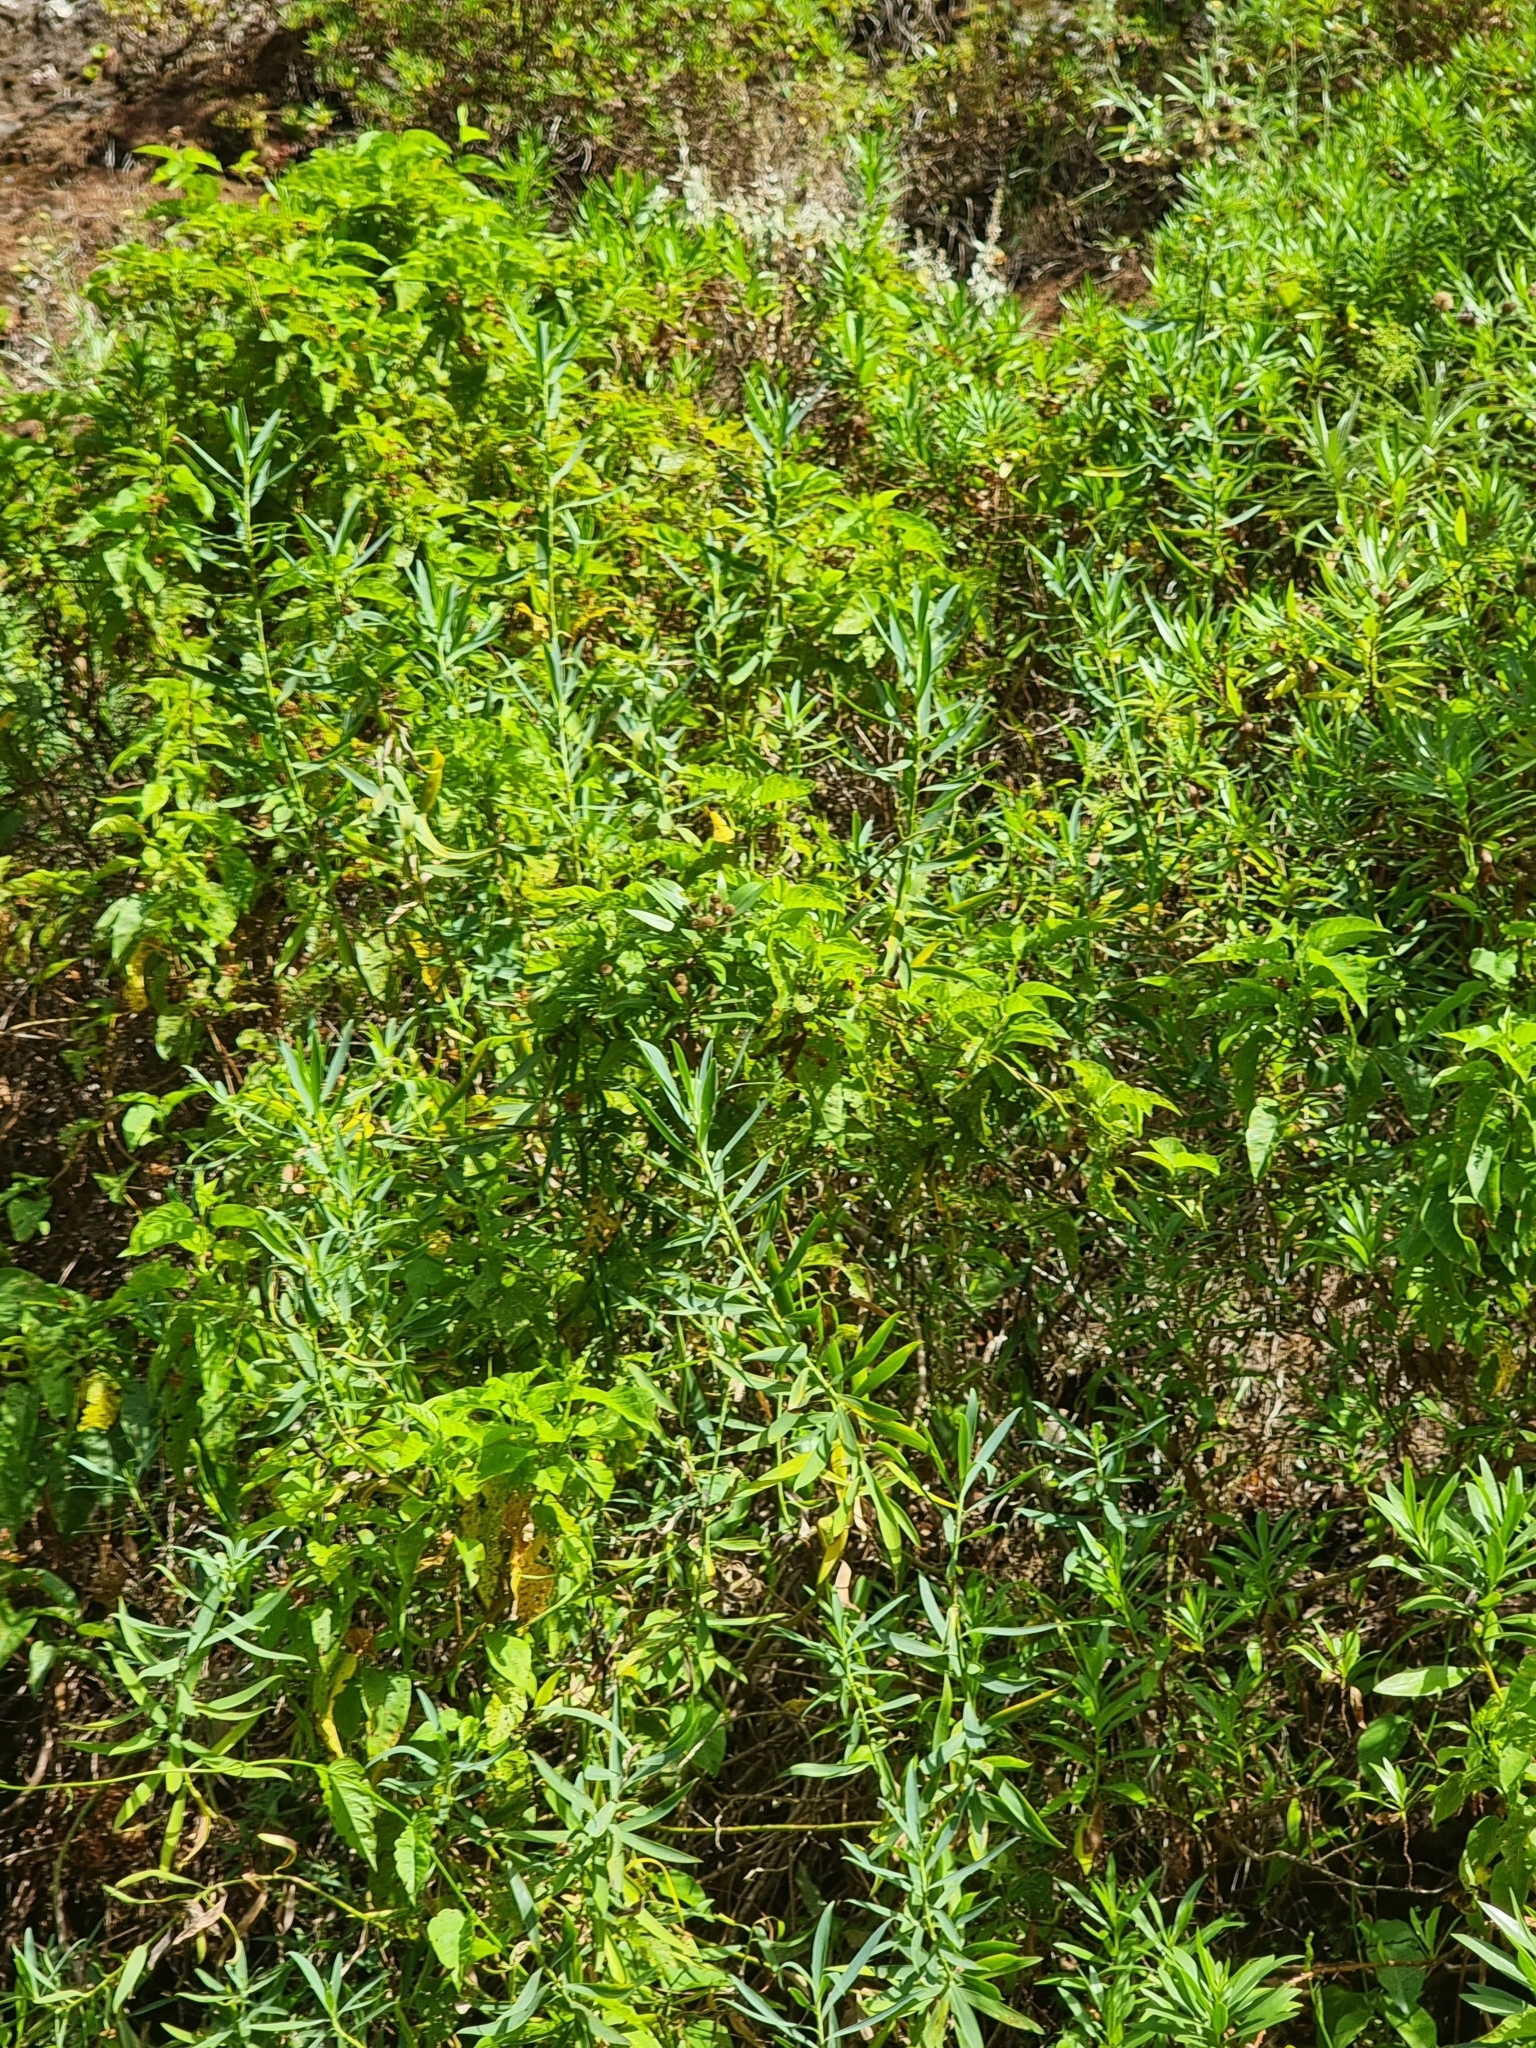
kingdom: Plantae
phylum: Tracheophyta
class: Magnoliopsida
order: Apiales
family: Apiaceae
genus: Bupleurum
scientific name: Bupleurum salicifolium
